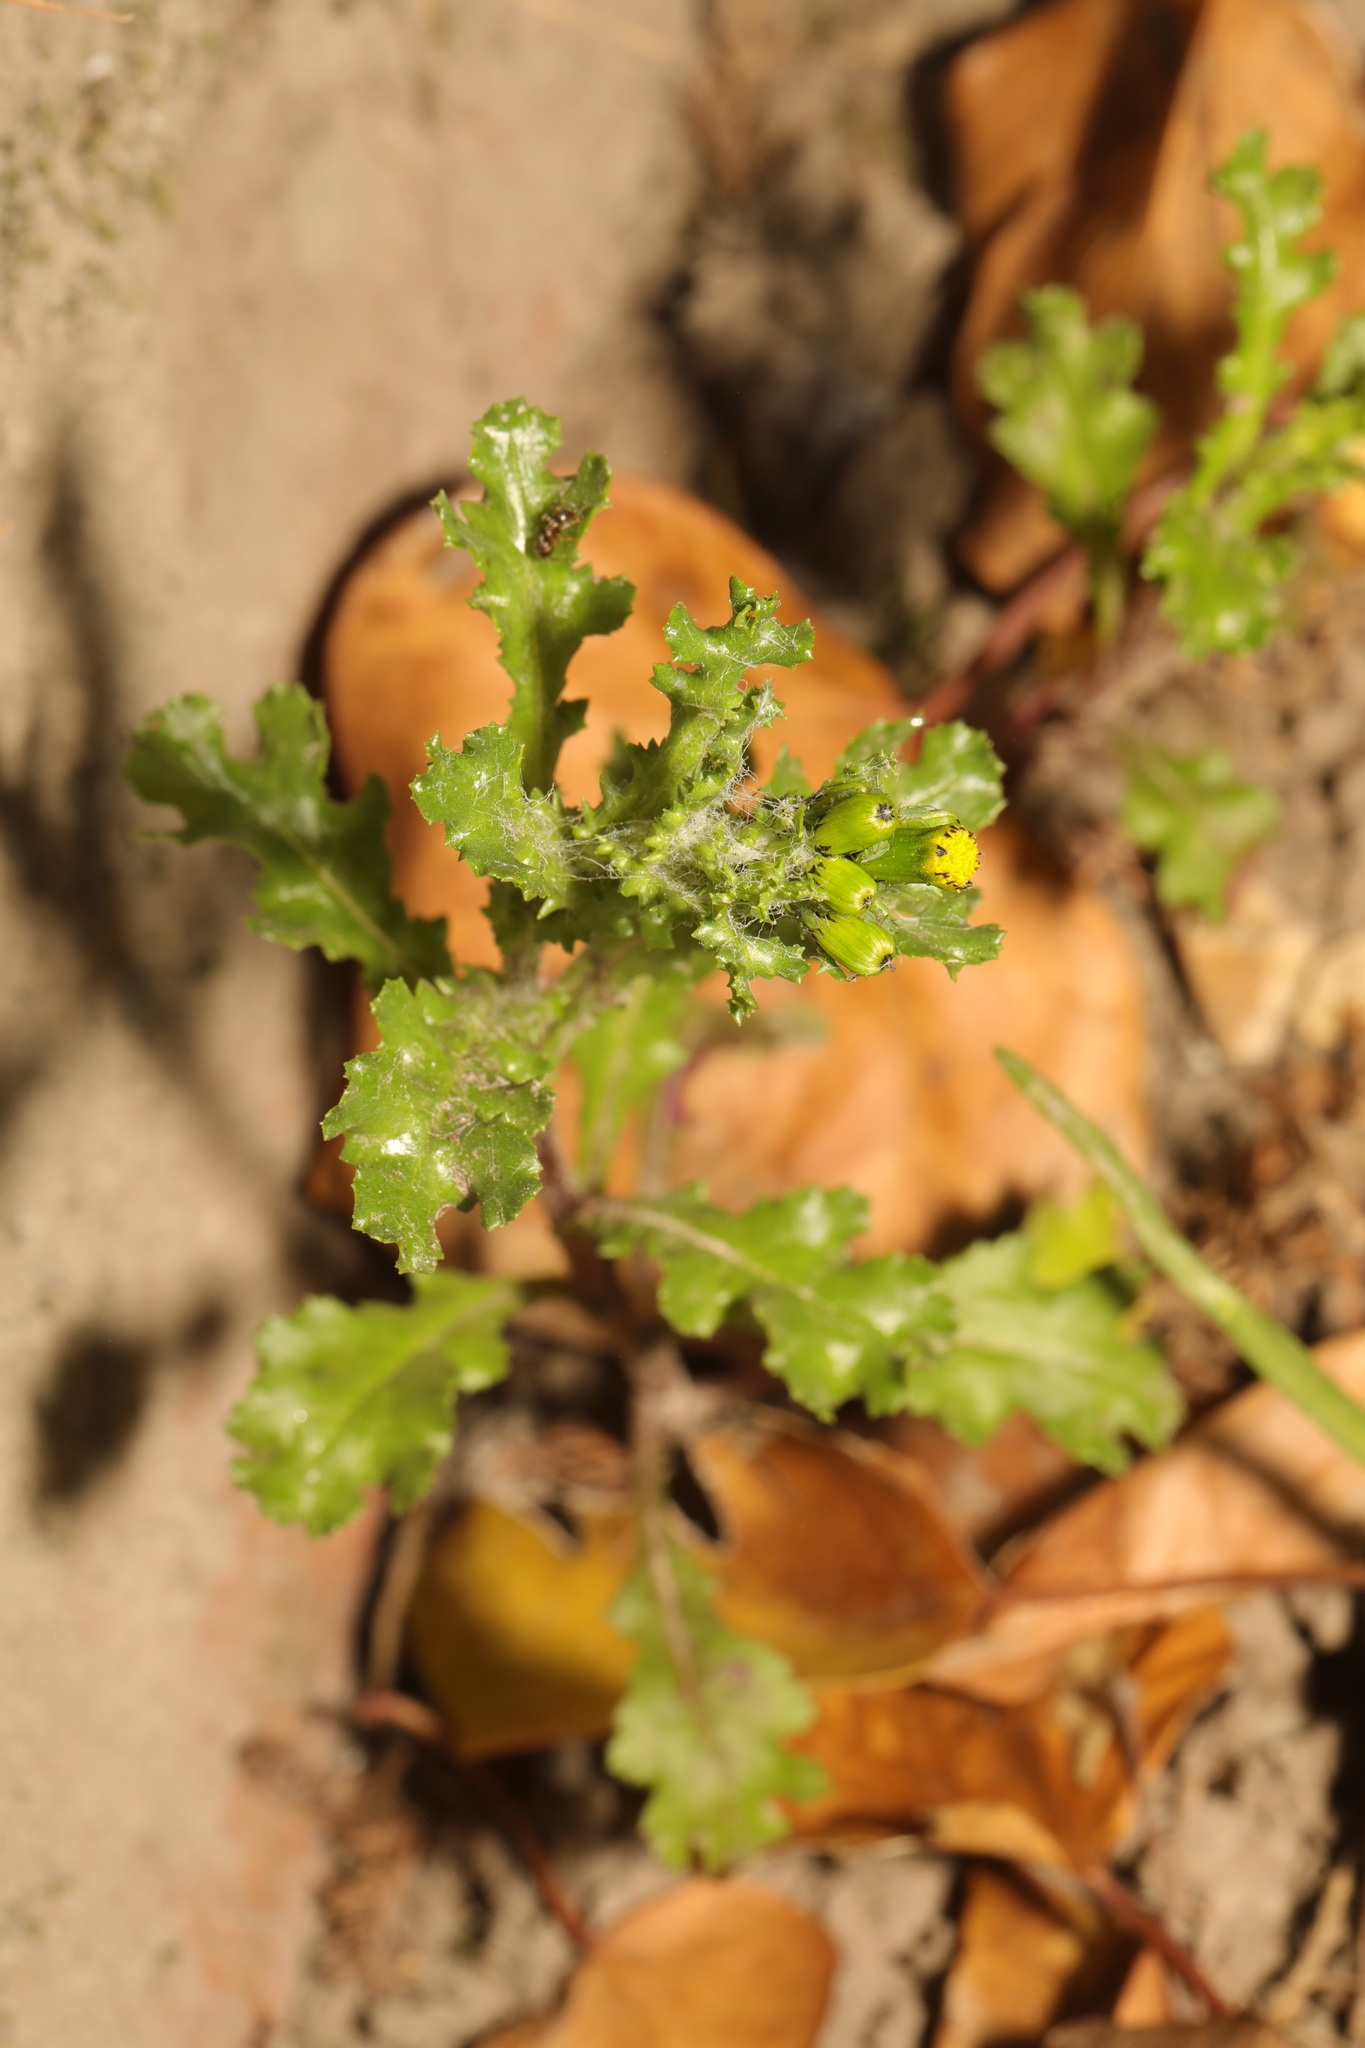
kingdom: Plantae
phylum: Tracheophyta
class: Magnoliopsida
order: Asterales
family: Asteraceae
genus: Senecio
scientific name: Senecio vulgaris
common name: Old-man-in-the-spring
